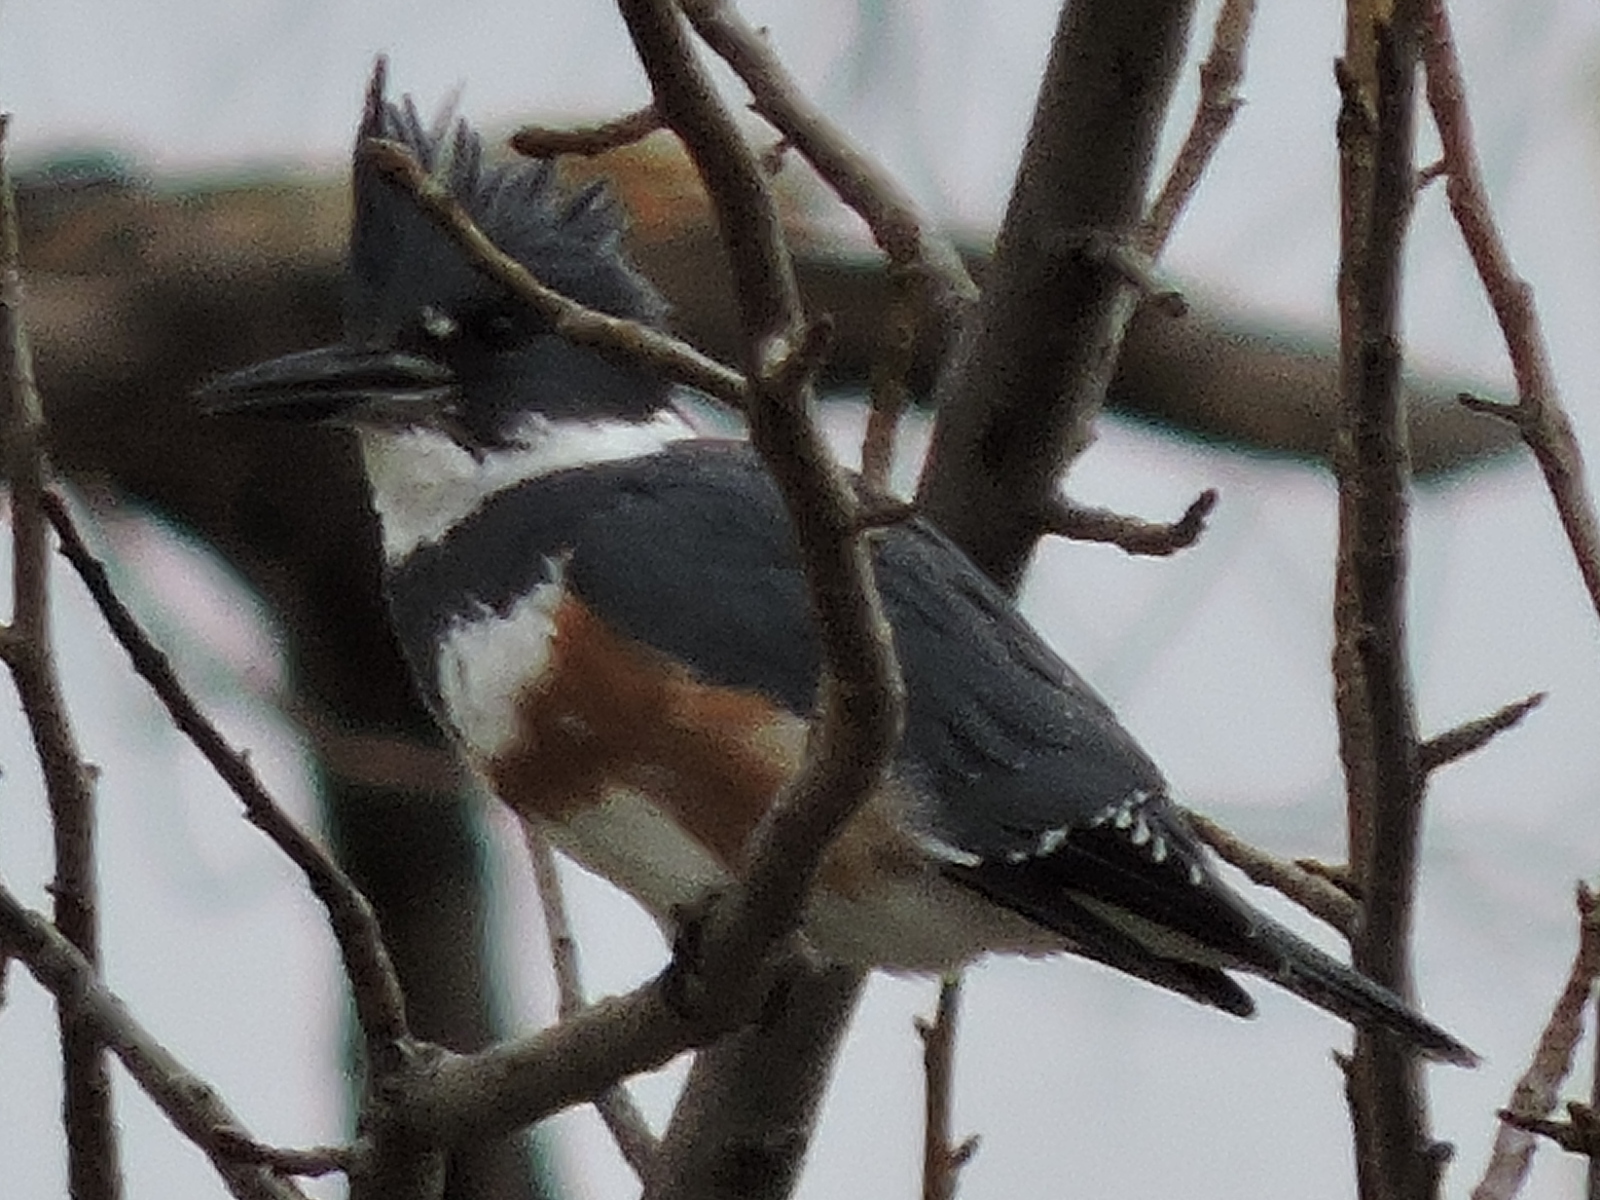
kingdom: Animalia
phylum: Chordata
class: Aves
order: Coraciiformes
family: Alcedinidae
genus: Megaceryle
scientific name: Megaceryle alcyon
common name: Belted kingfisher
